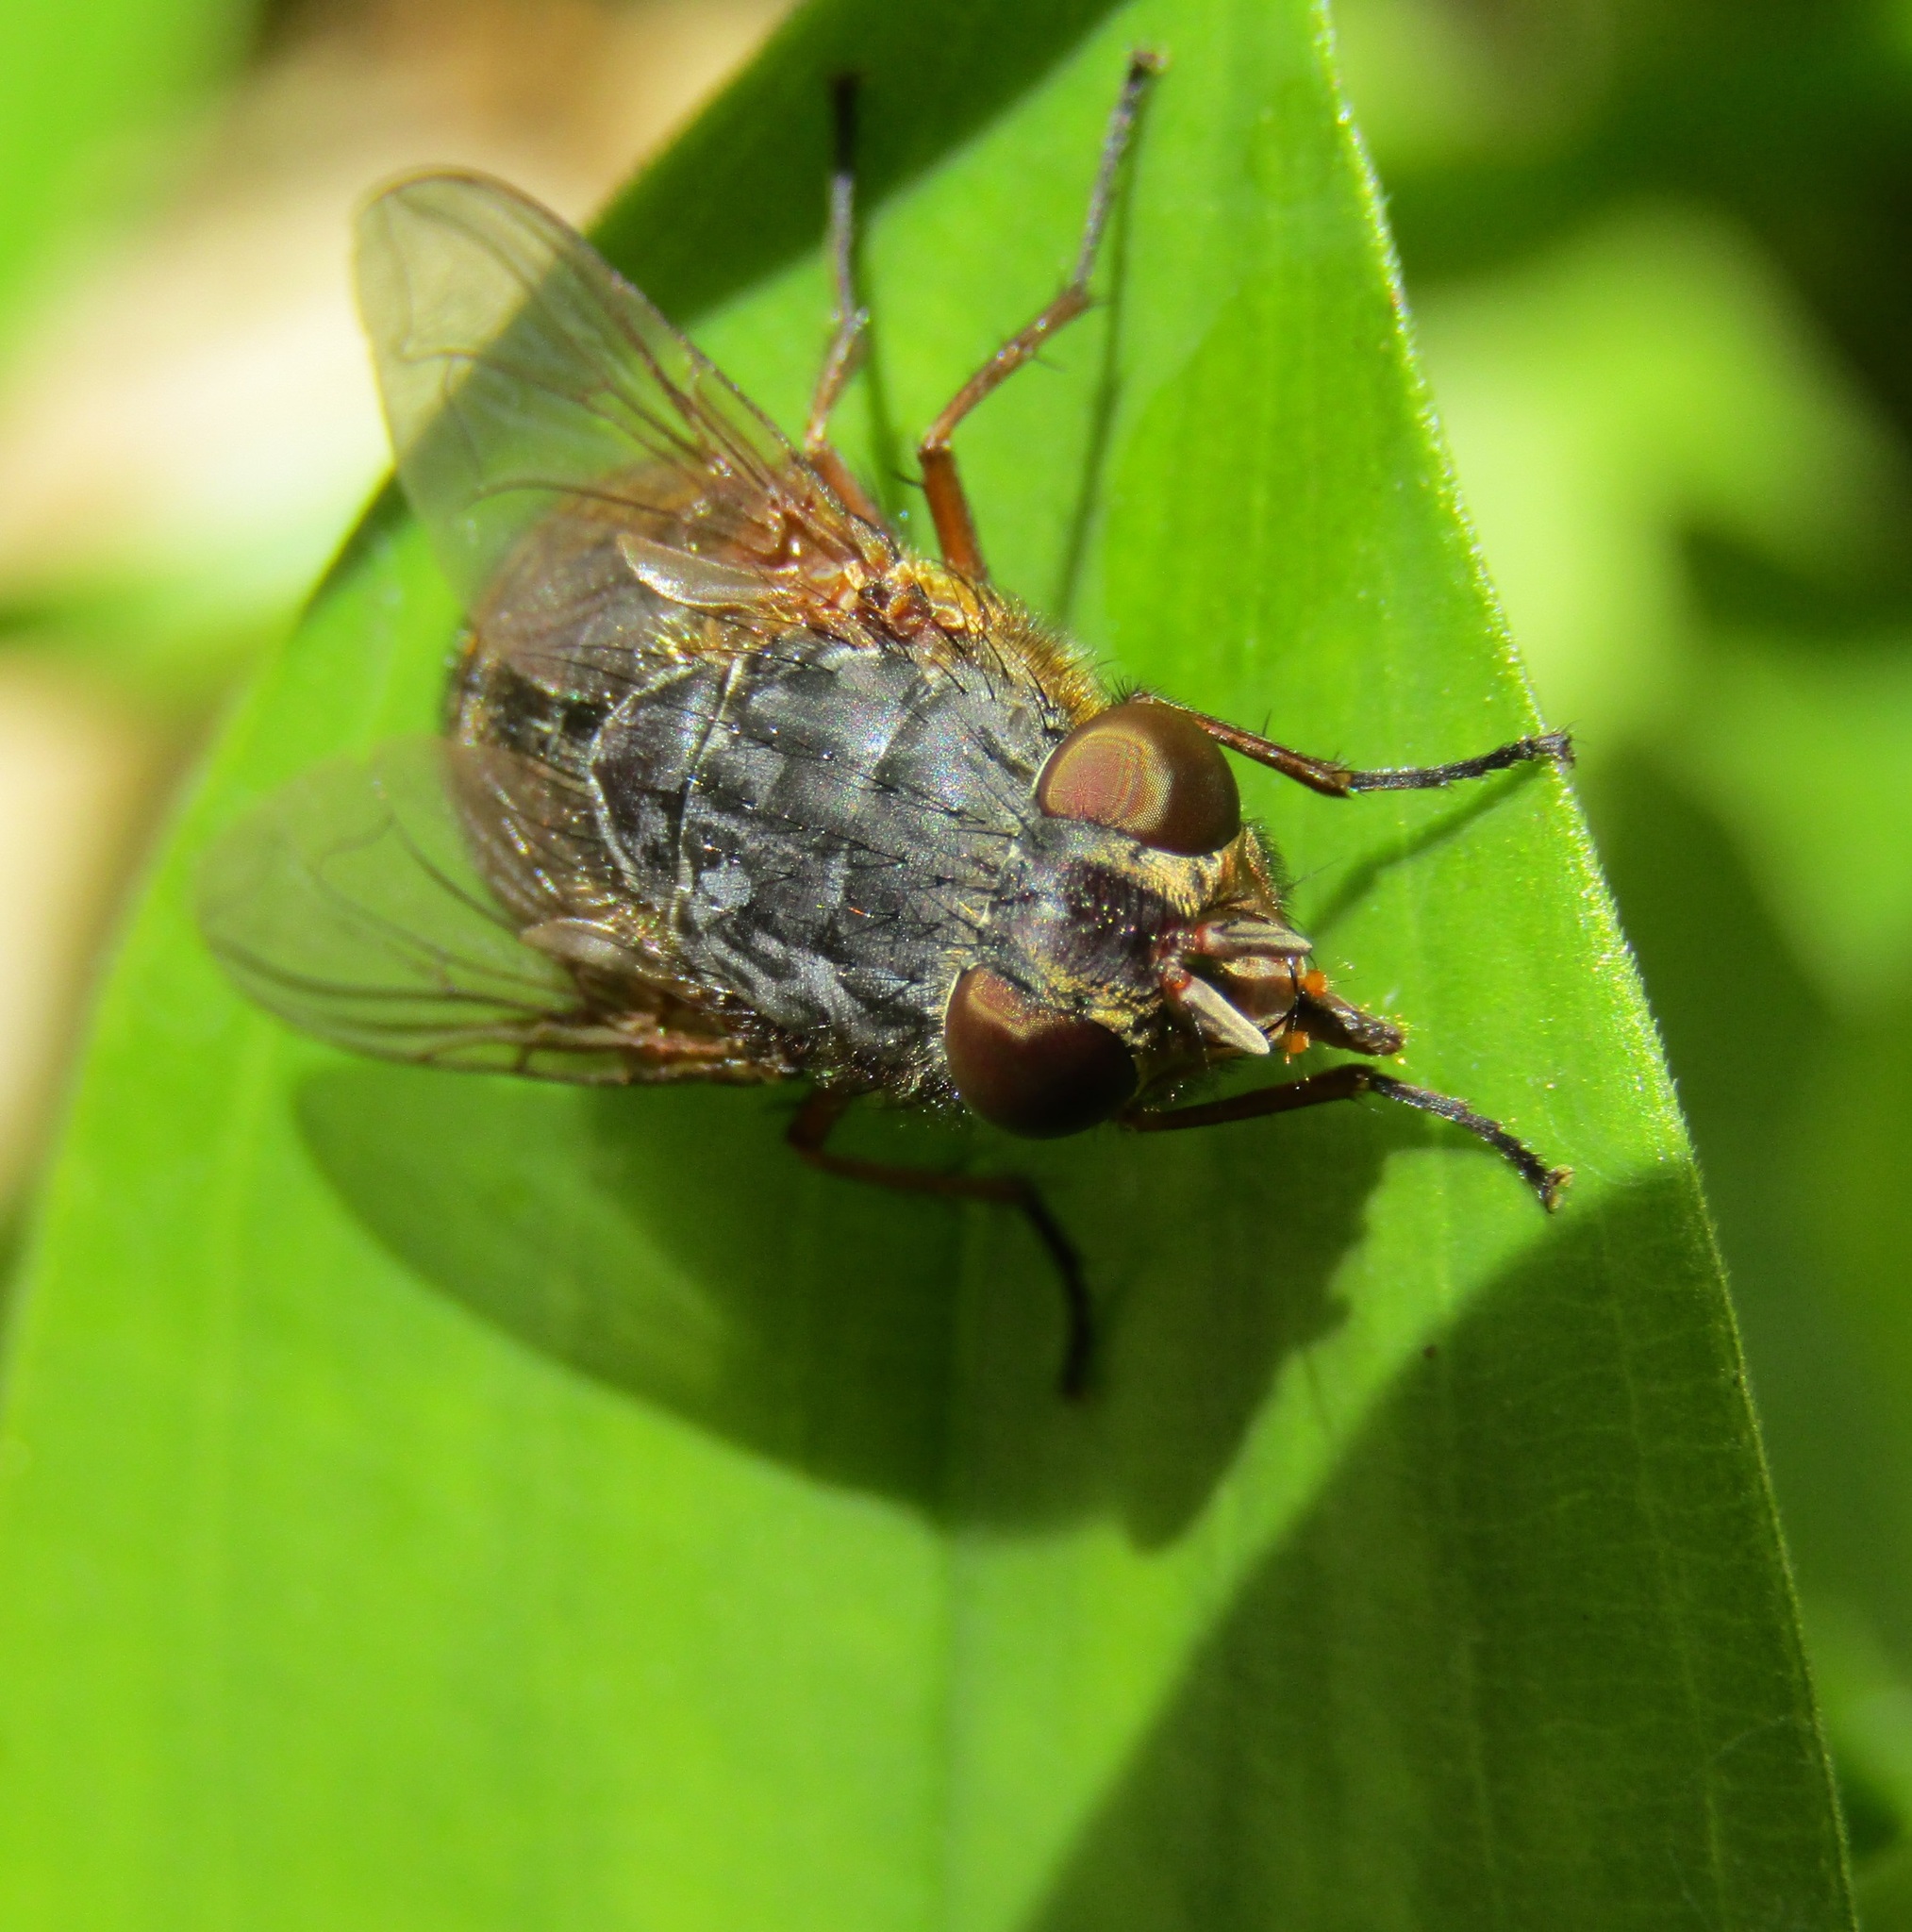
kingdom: Animalia
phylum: Arthropoda
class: Insecta
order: Diptera
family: Calliphoridae
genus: Calliphora
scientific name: Calliphora stygia
